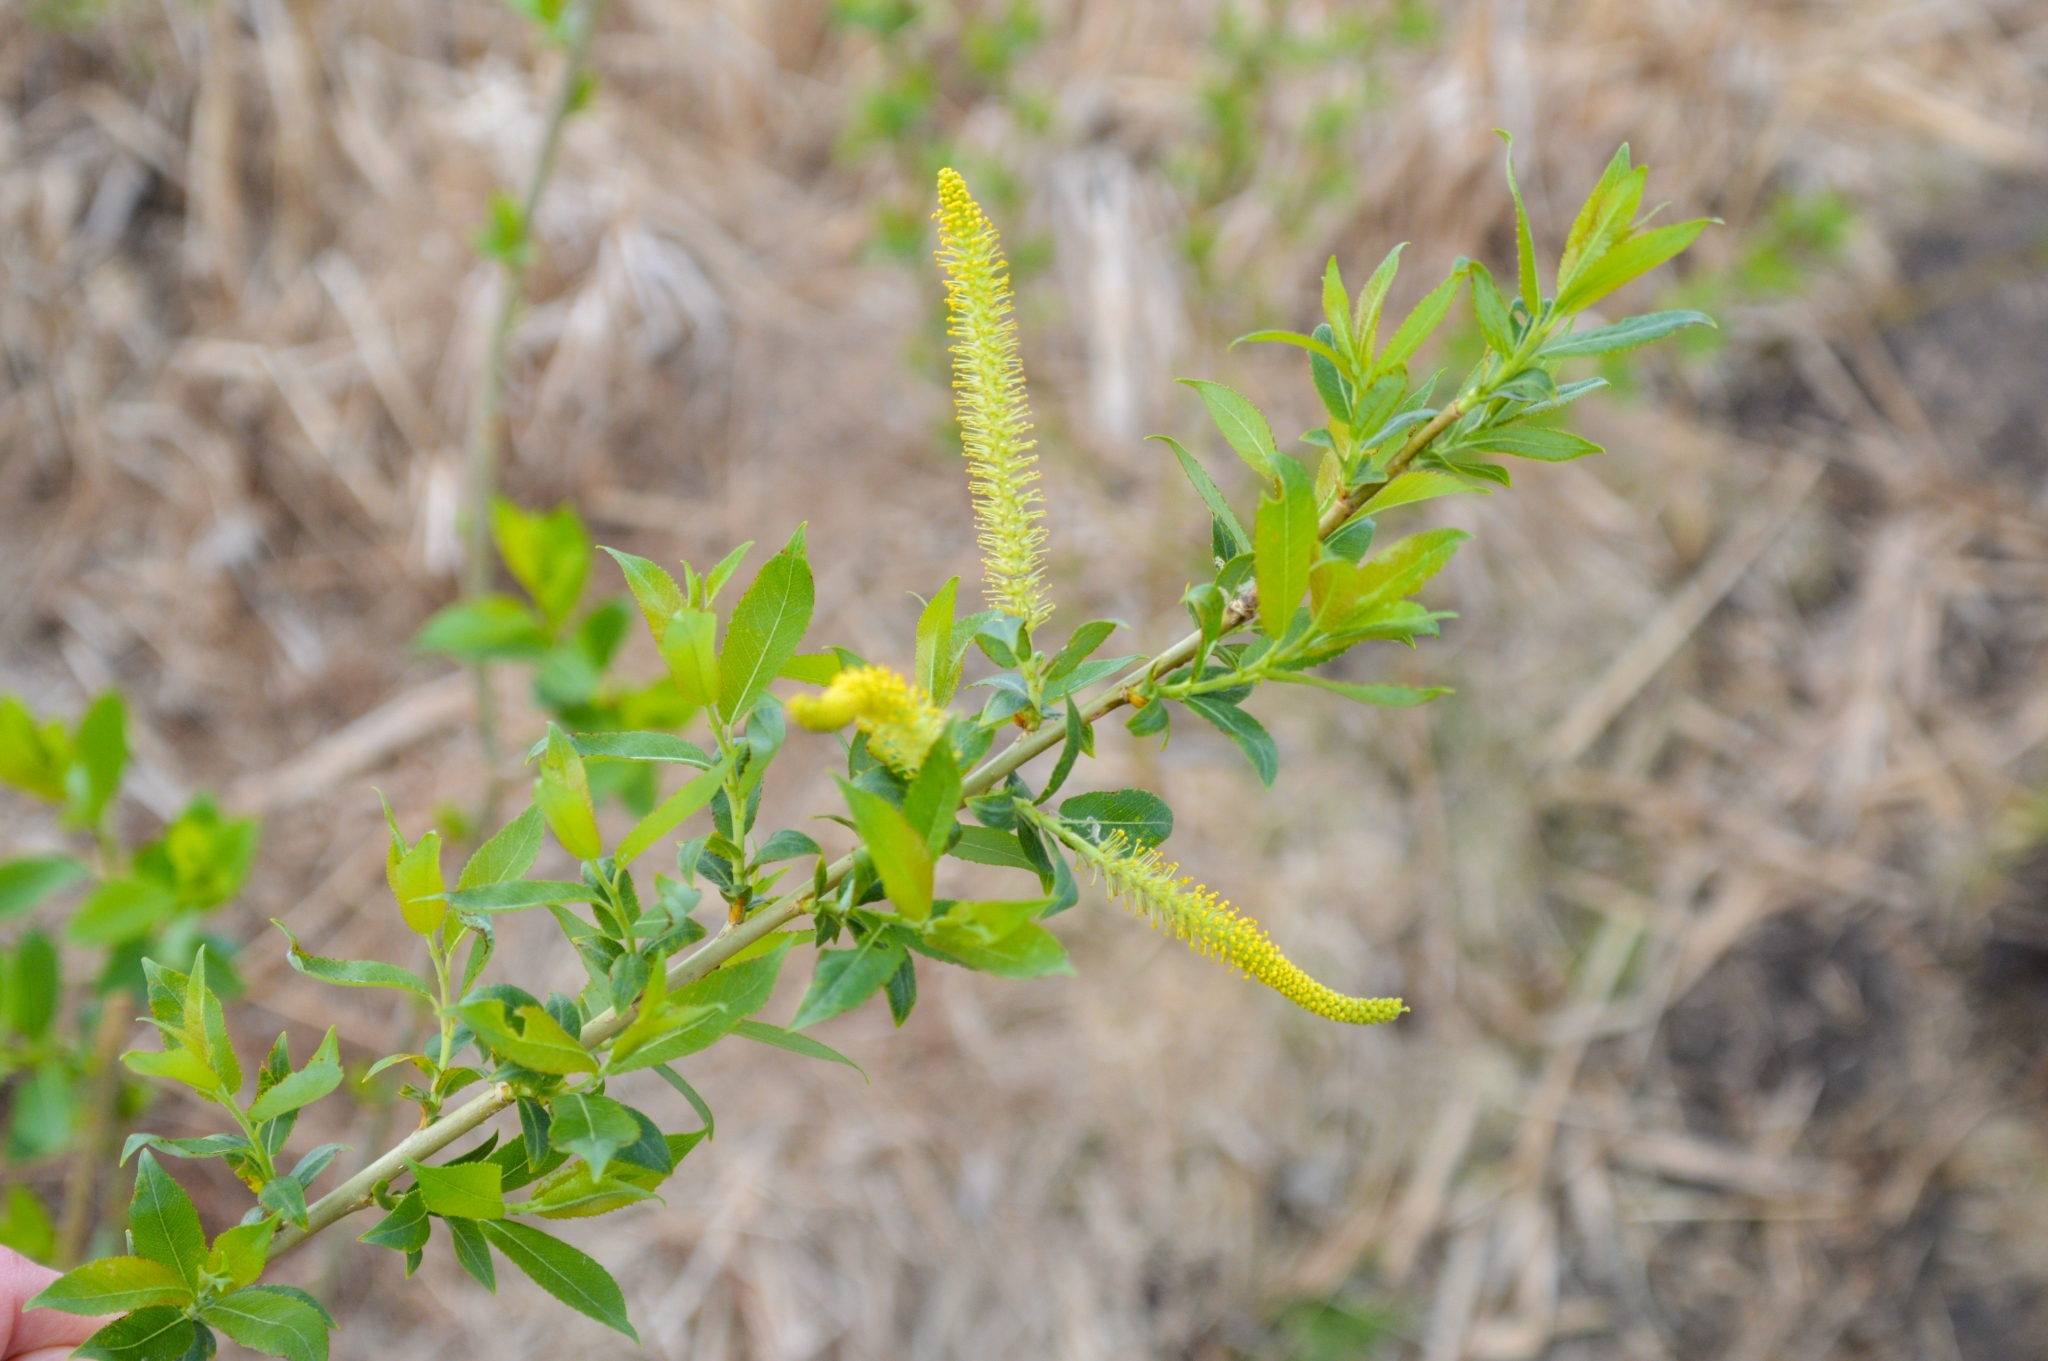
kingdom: Plantae
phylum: Tracheophyta
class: Magnoliopsida
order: Malpighiales
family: Salicaceae
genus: Salix
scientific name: Salix triandra
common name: Almond willow
